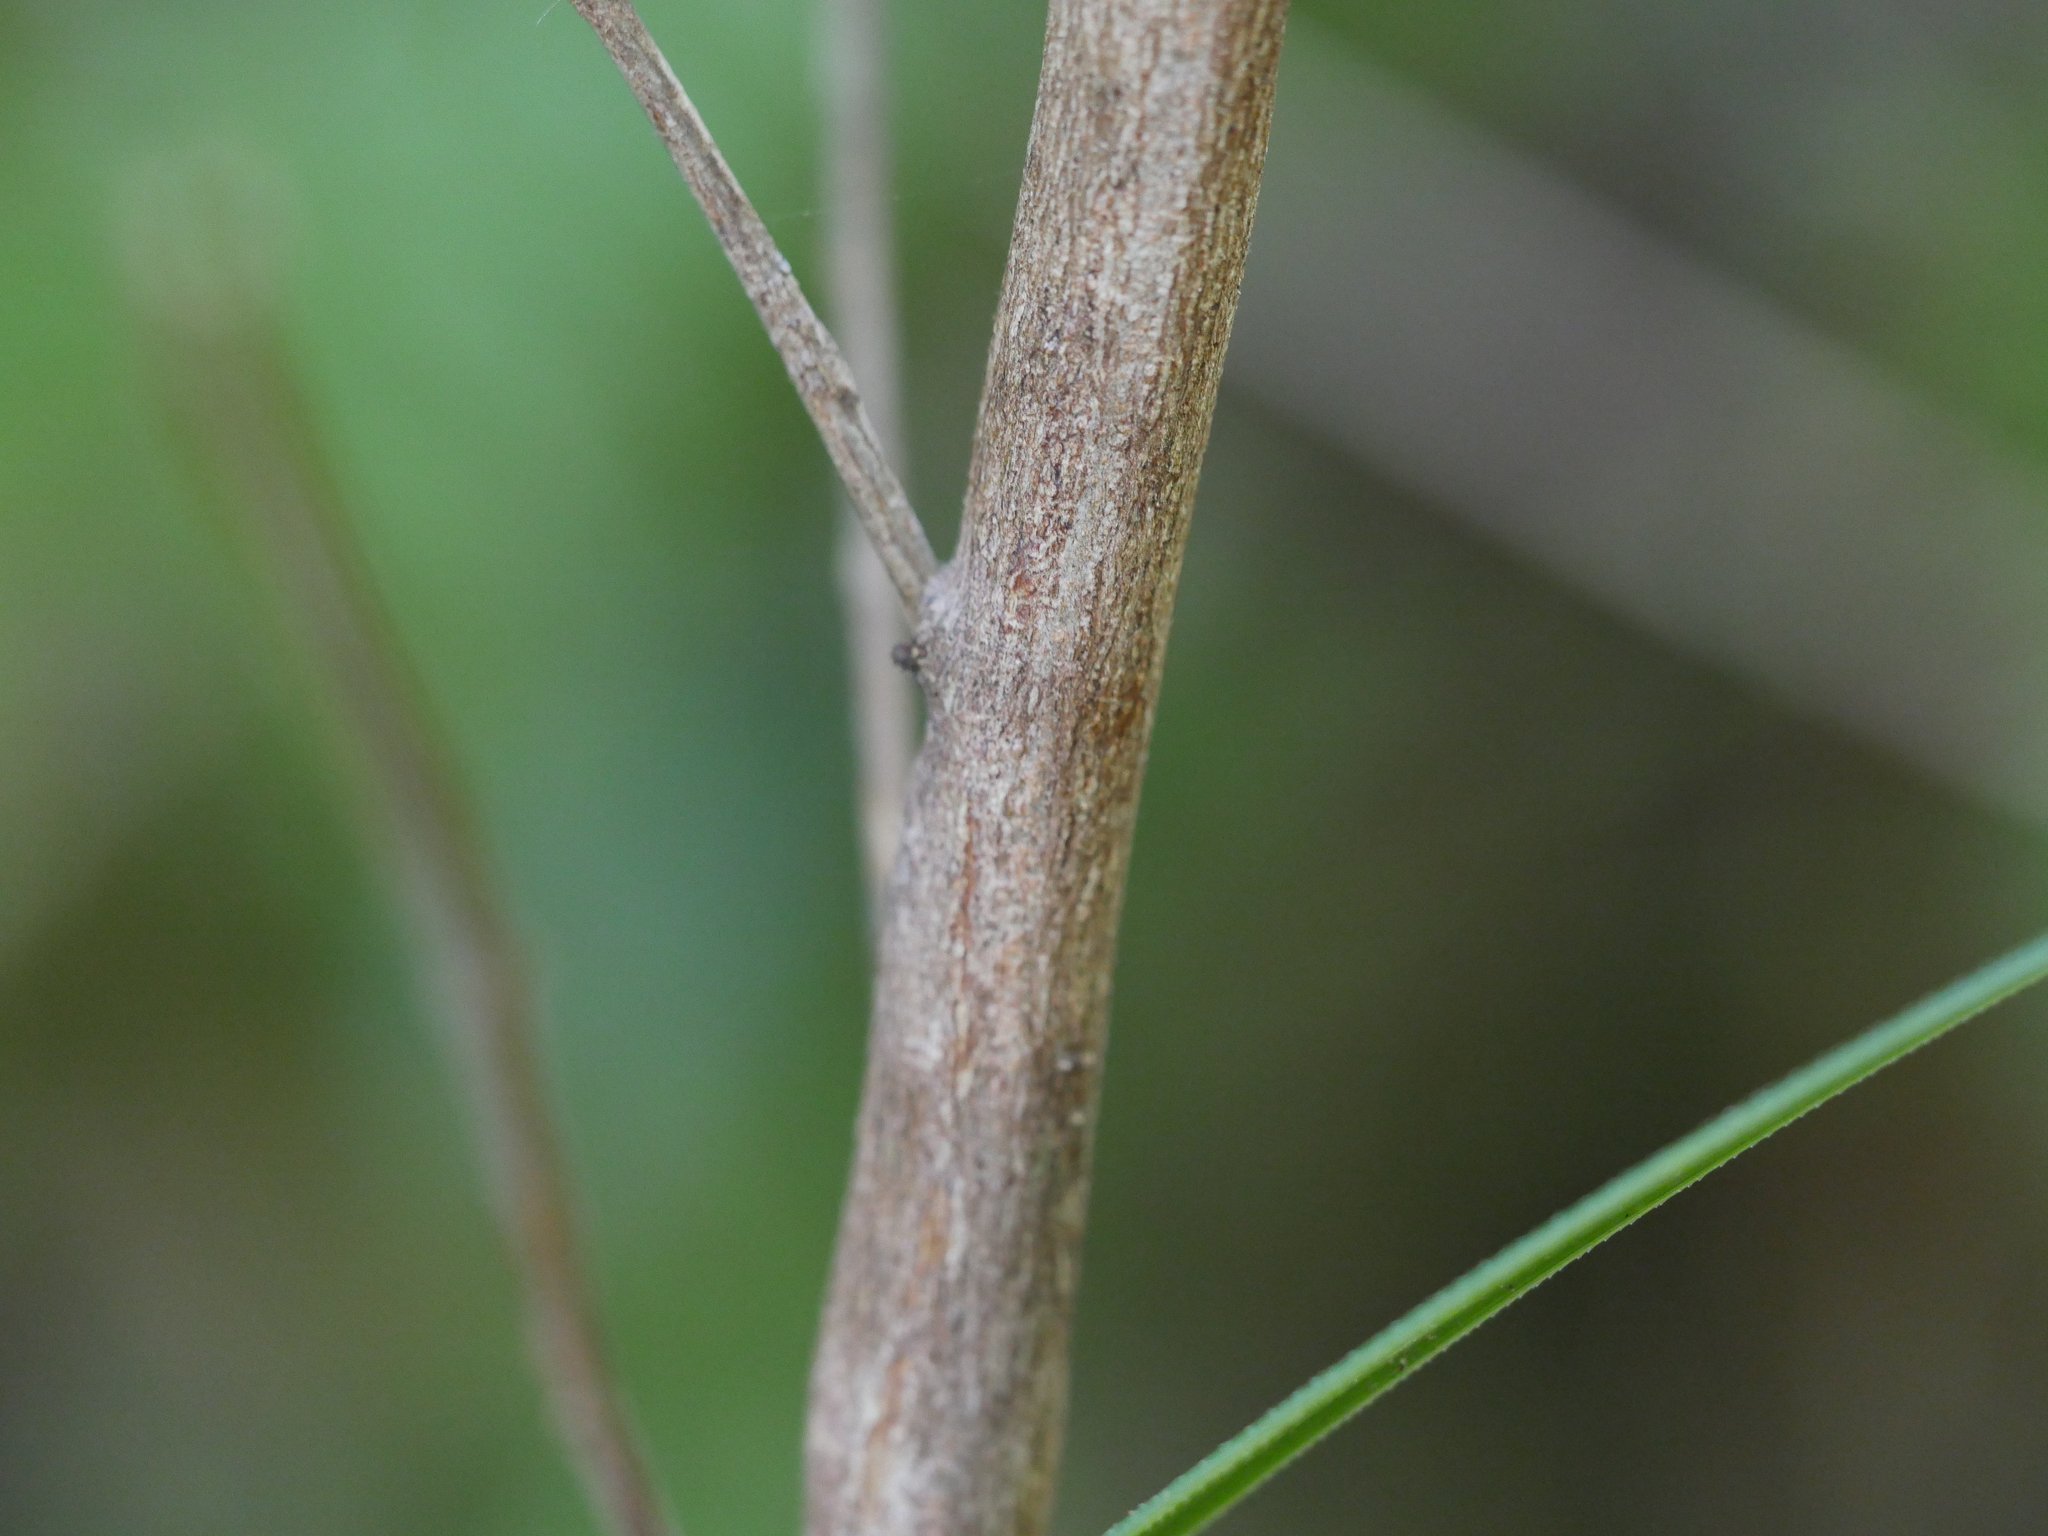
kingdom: Plantae
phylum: Tracheophyta
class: Magnoliopsida
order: Santalales
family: Nanodeaceae
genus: Mida
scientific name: Mida salicifolia
